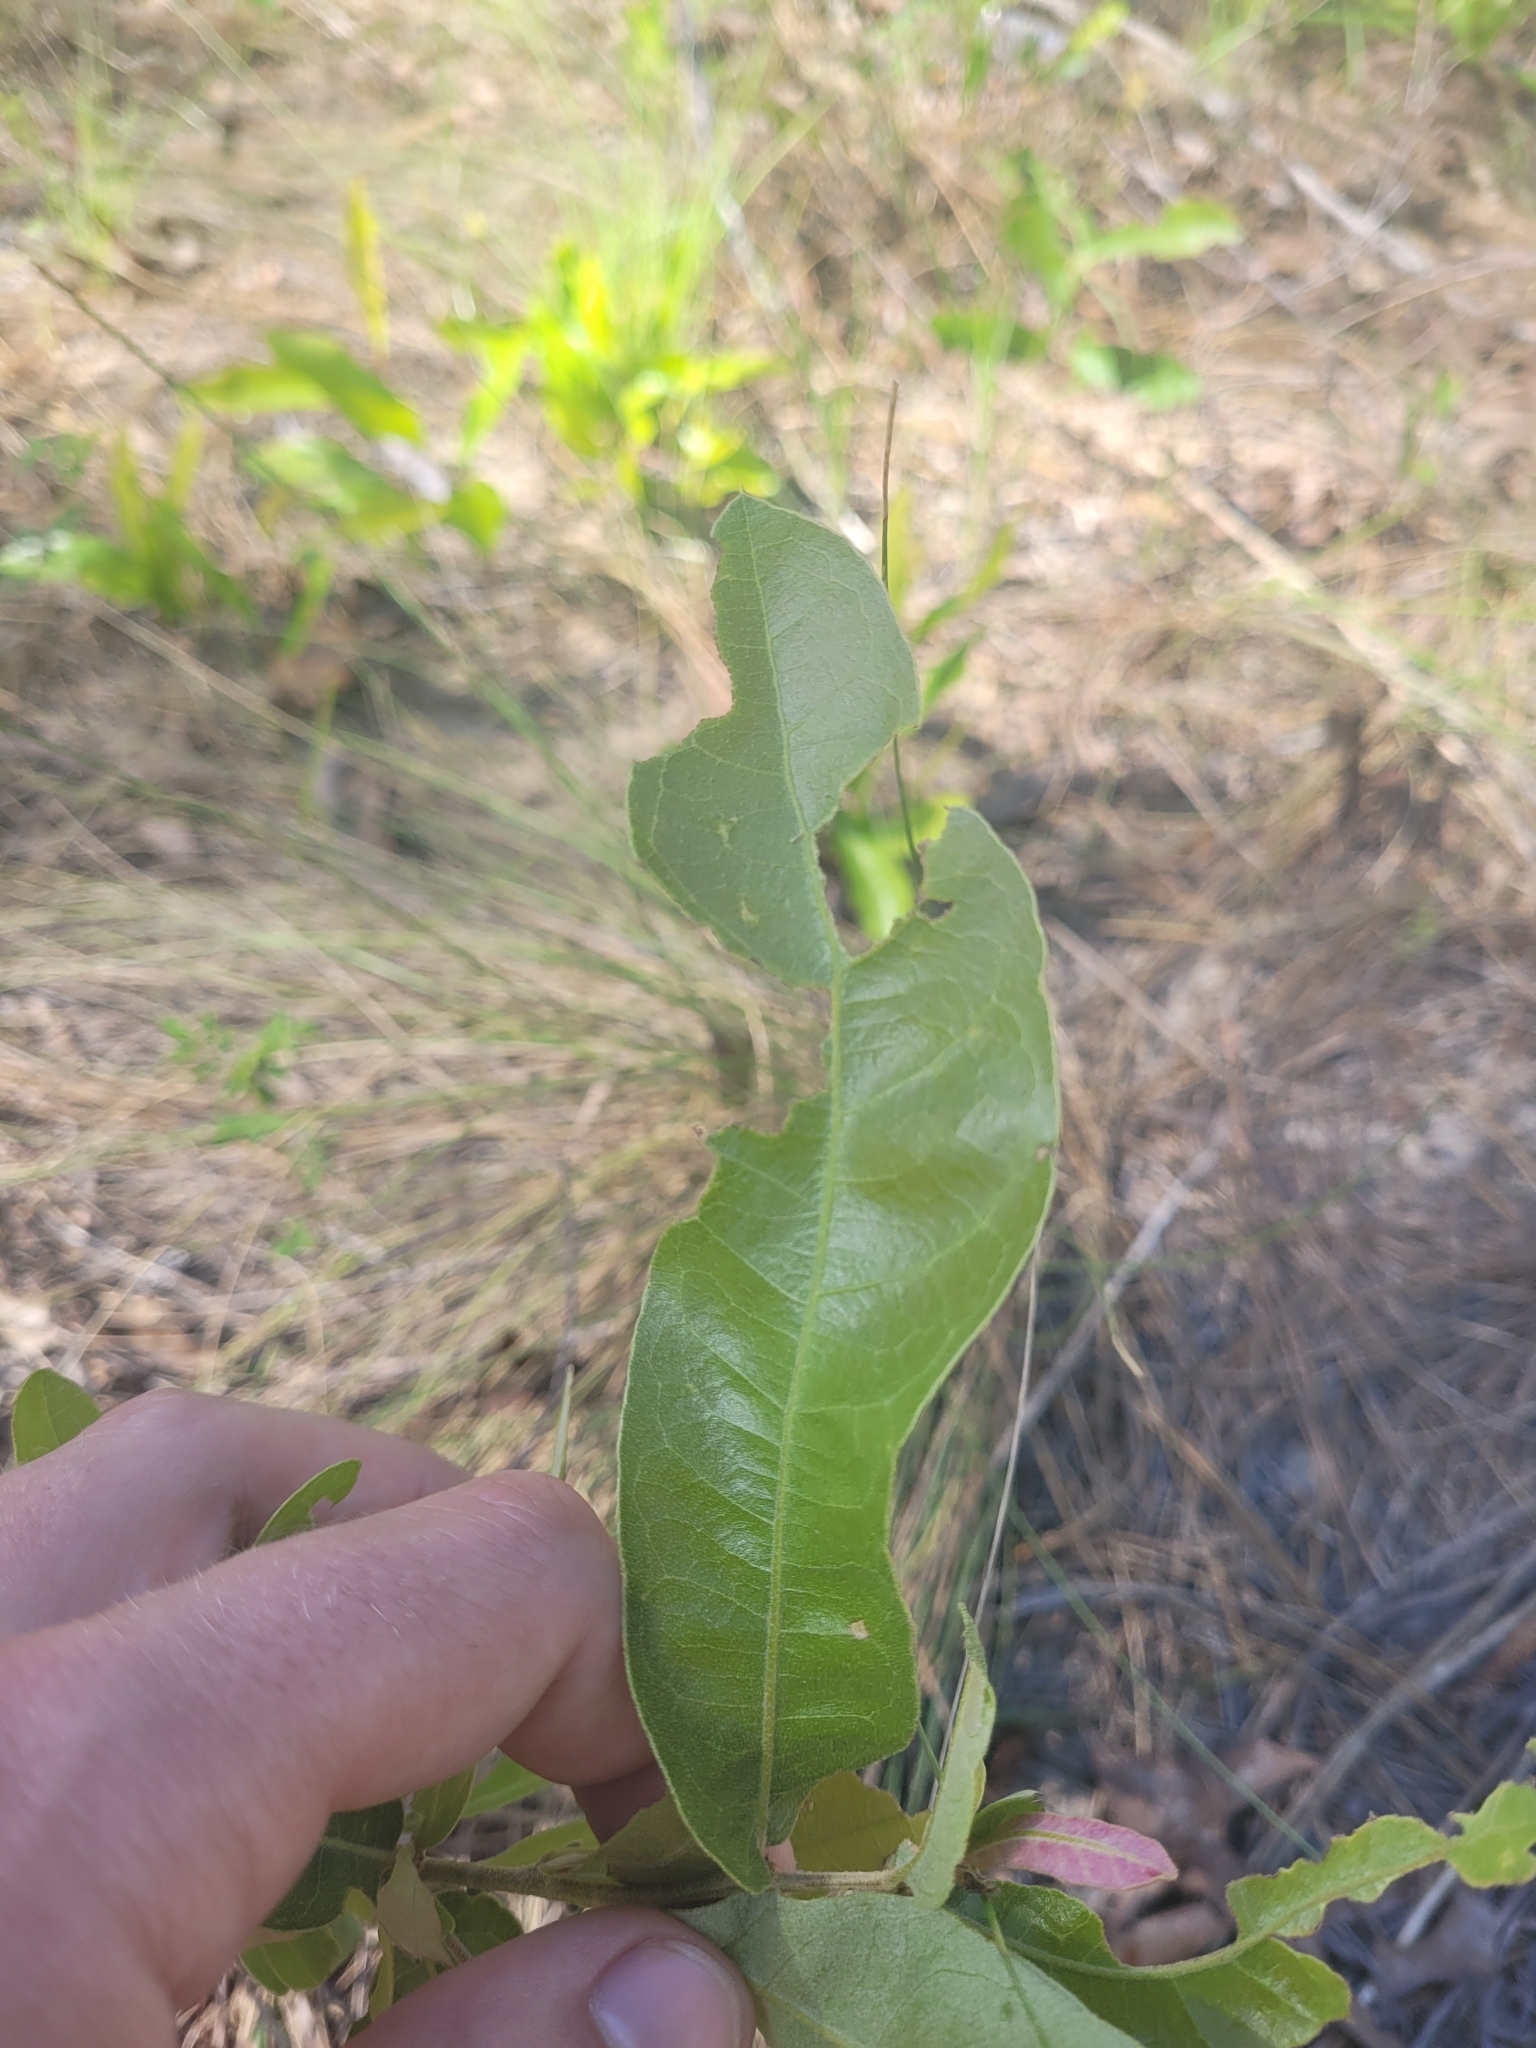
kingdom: Plantae
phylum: Tracheophyta
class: Magnoliopsida
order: Fagales
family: Fagaceae
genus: Quercus
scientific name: Quercus pumila
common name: Runner oak
